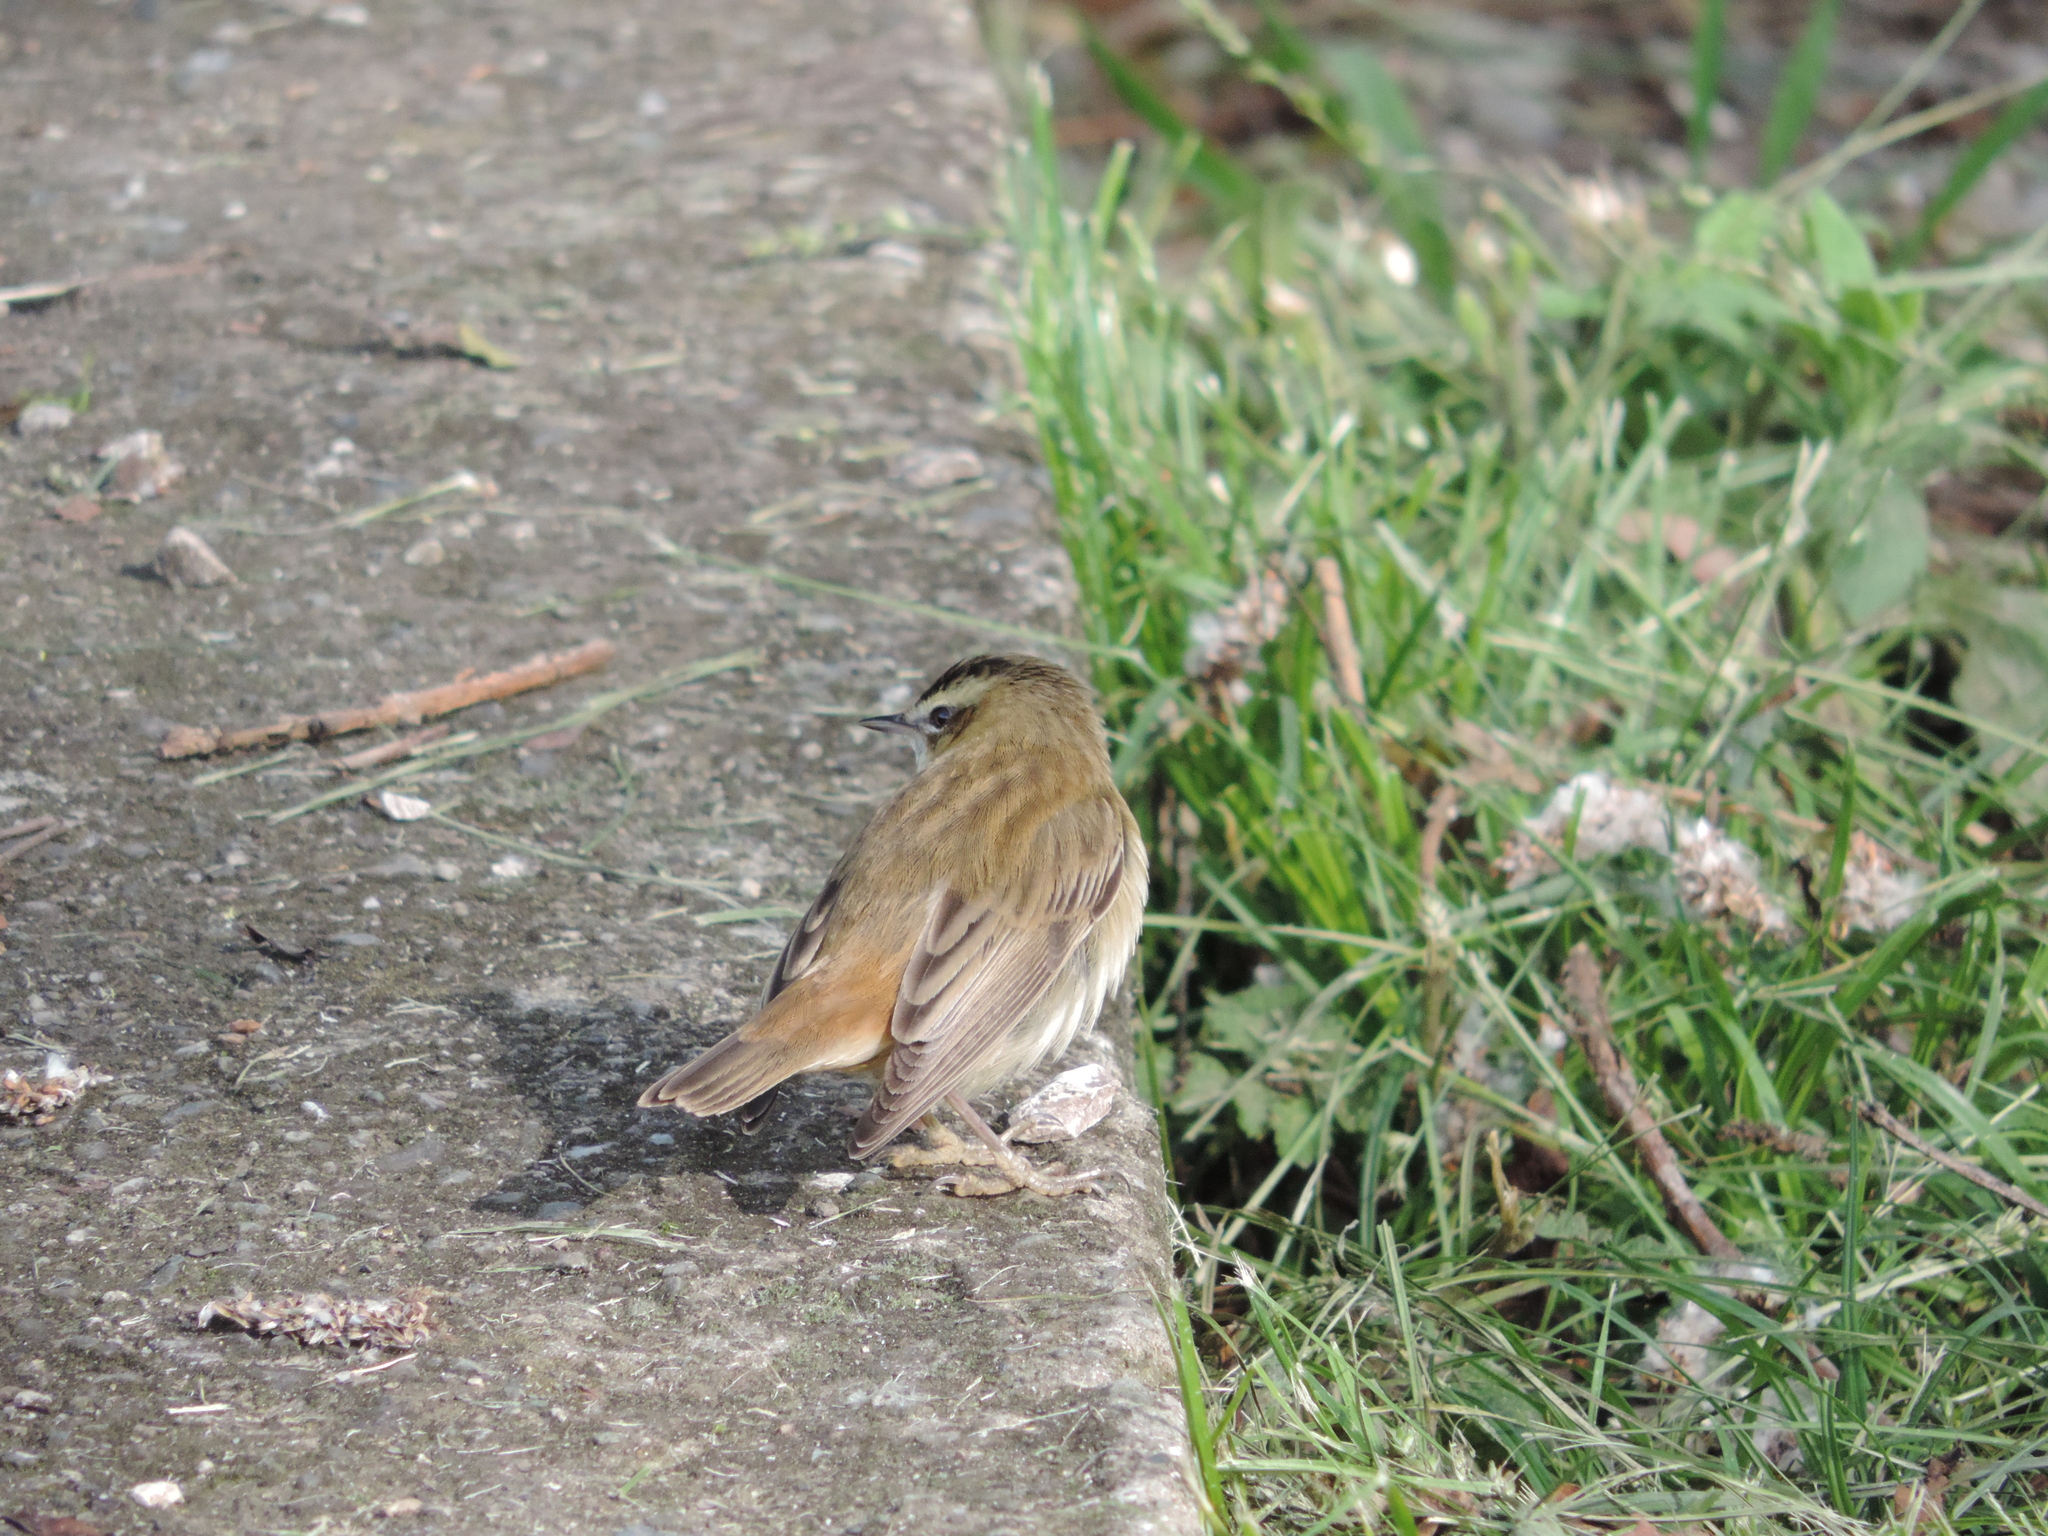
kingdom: Animalia
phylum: Chordata
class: Aves
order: Passeriformes
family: Acrocephalidae
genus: Acrocephalus
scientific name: Acrocephalus schoenobaenus
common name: Sedge warbler
